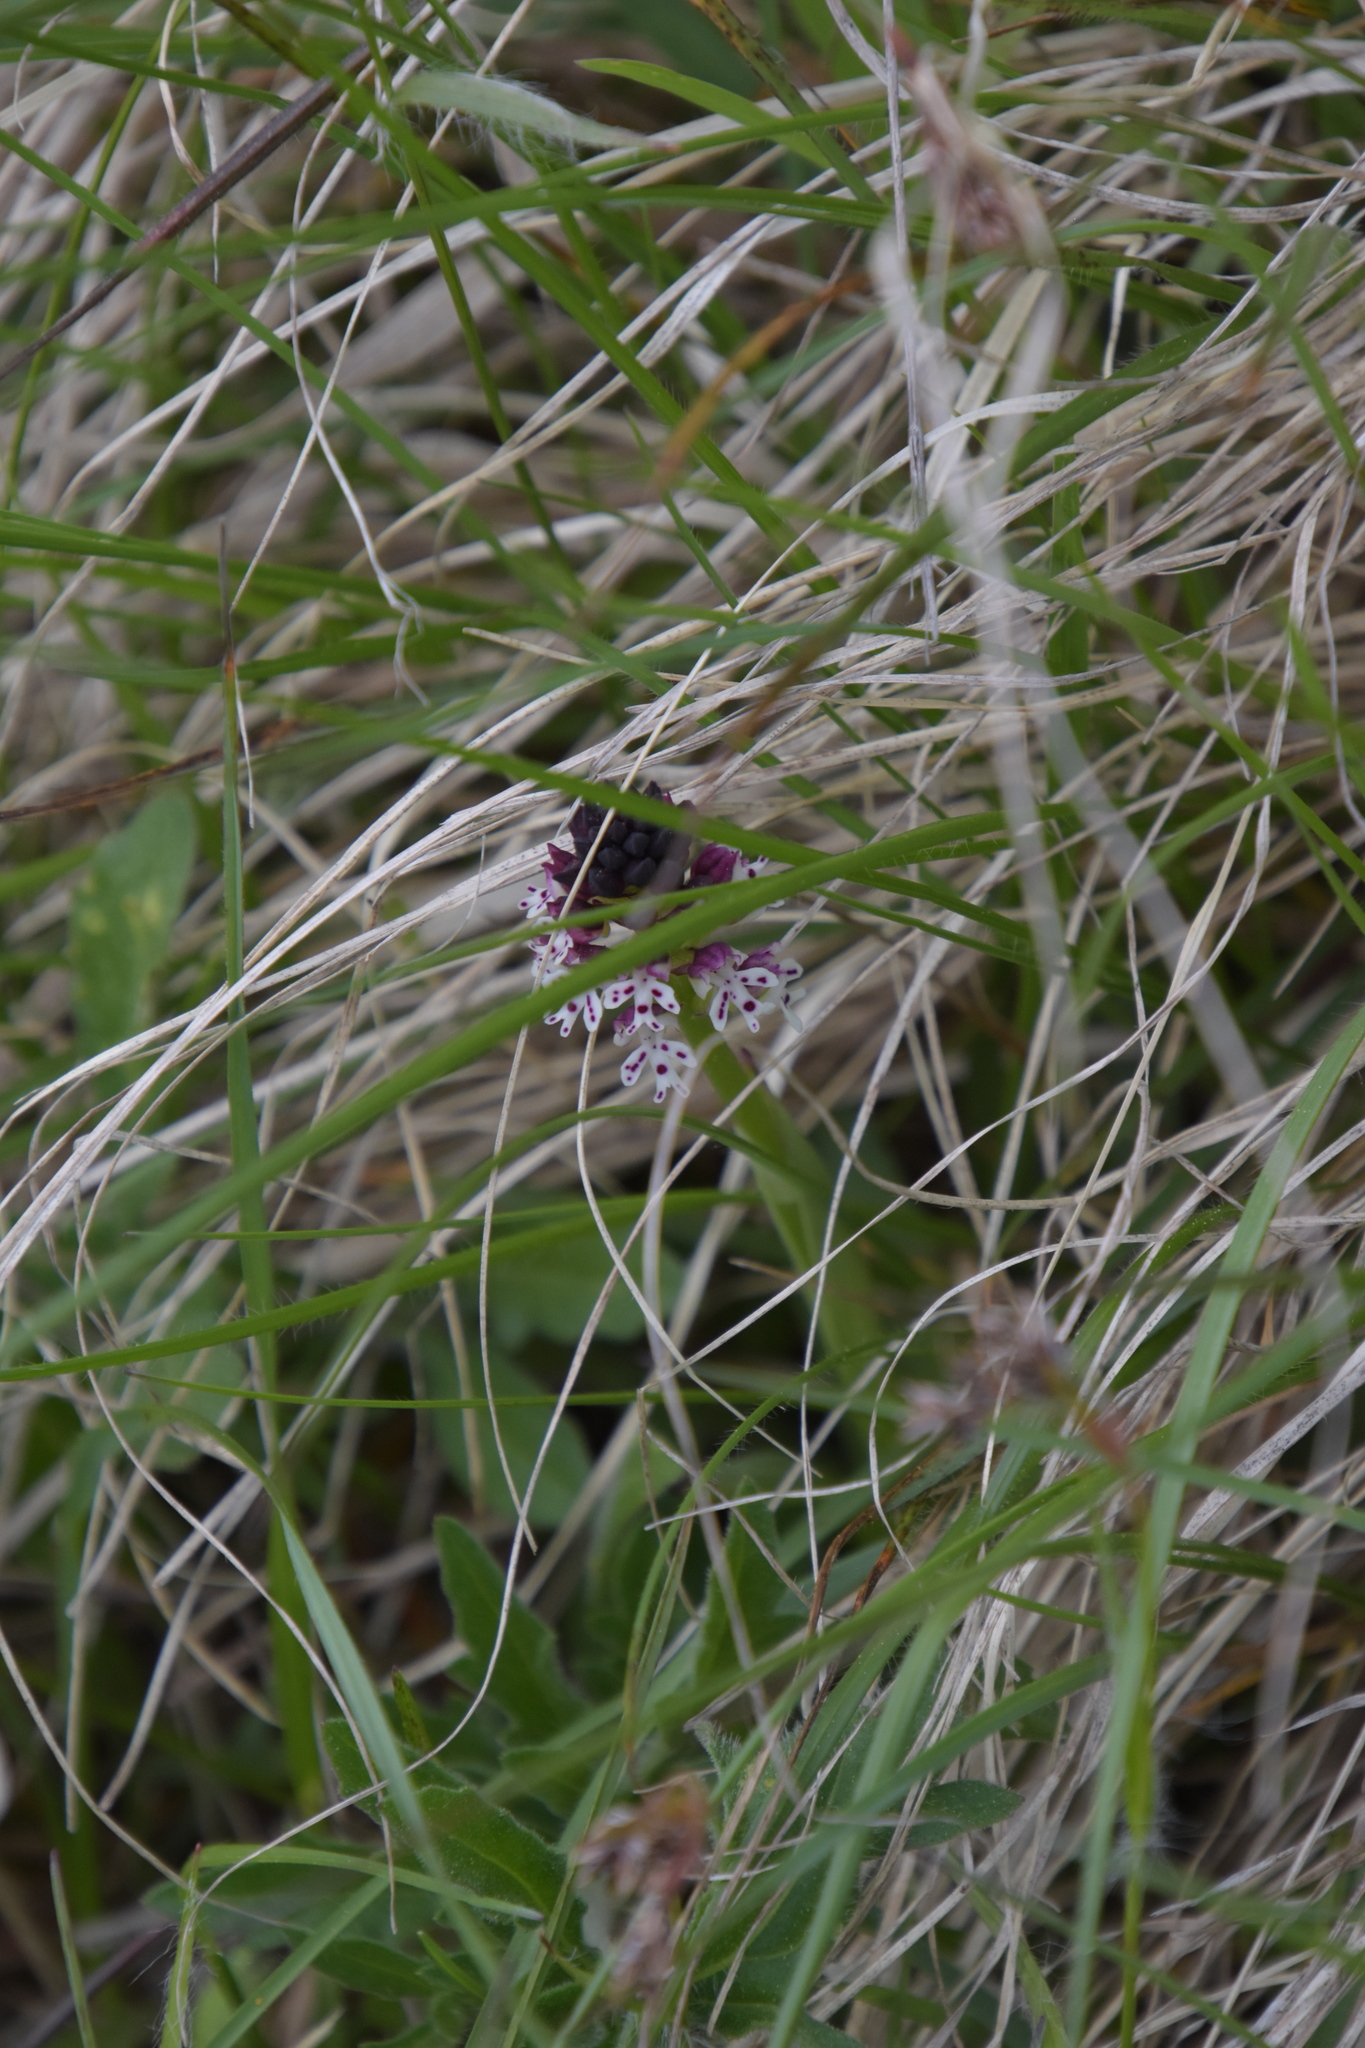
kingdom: Plantae
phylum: Tracheophyta
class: Liliopsida
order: Asparagales
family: Orchidaceae
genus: Neotinea
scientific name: Neotinea ustulata
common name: Burnt orchid
